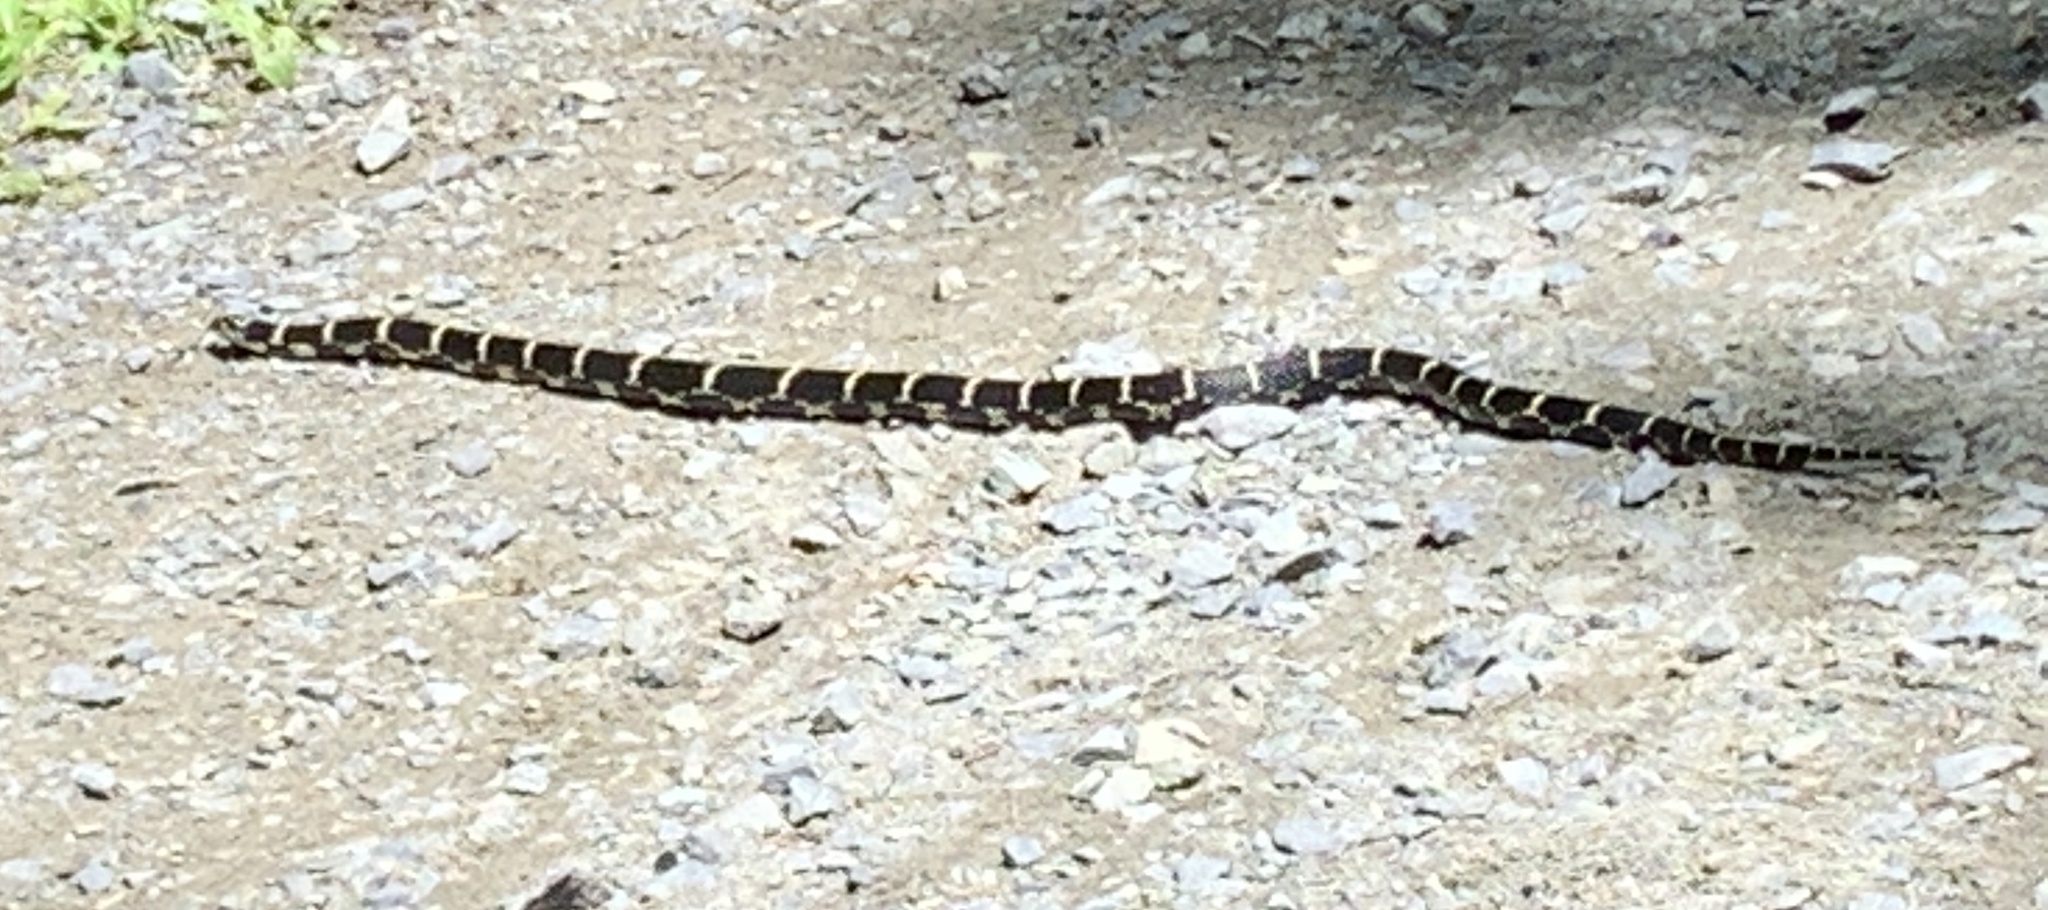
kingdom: Animalia
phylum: Chordata
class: Squamata
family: Colubridae
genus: Lampropeltis
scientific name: Lampropeltis getula
